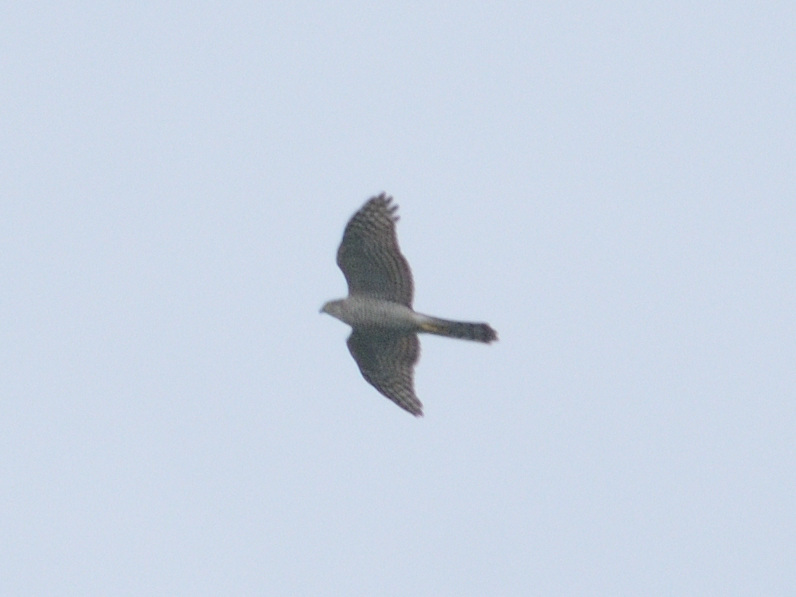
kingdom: Animalia
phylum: Chordata
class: Aves
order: Accipitriformes
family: Accipitridae
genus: Accipiter
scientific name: Accipiter nisus
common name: Eurasian sparrowhawk
